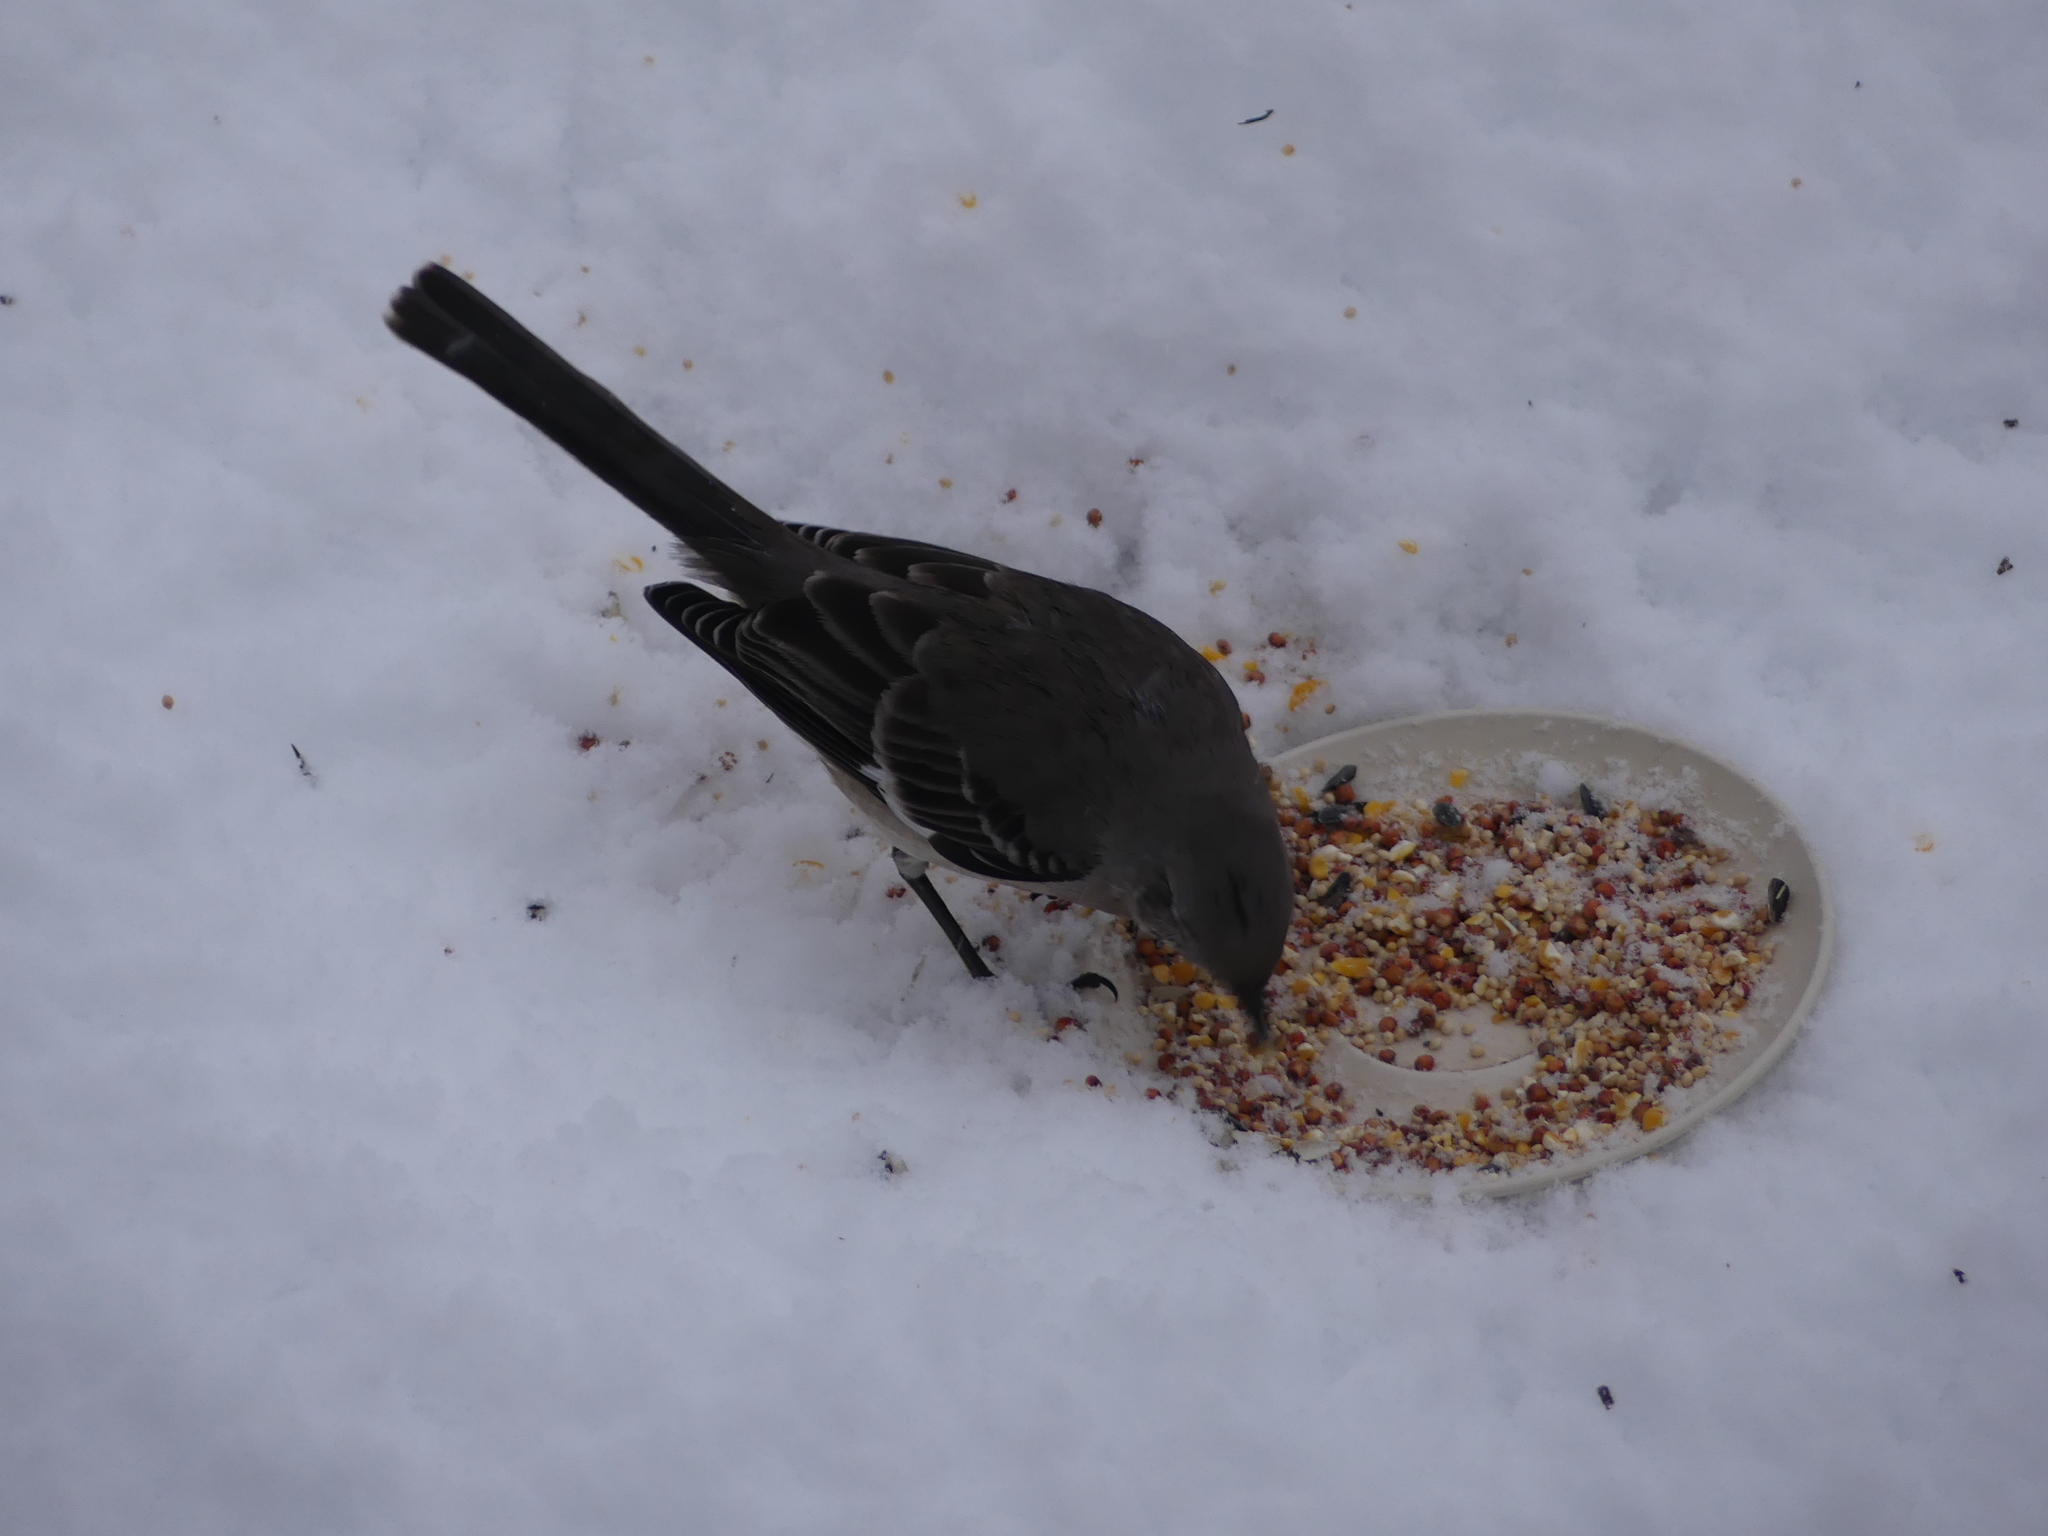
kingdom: Animalia
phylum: Chordata
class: Aves
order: Passeriformes
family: Mimidae
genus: Mimus
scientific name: Mimus polyglottos
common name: Northern mockingbird
